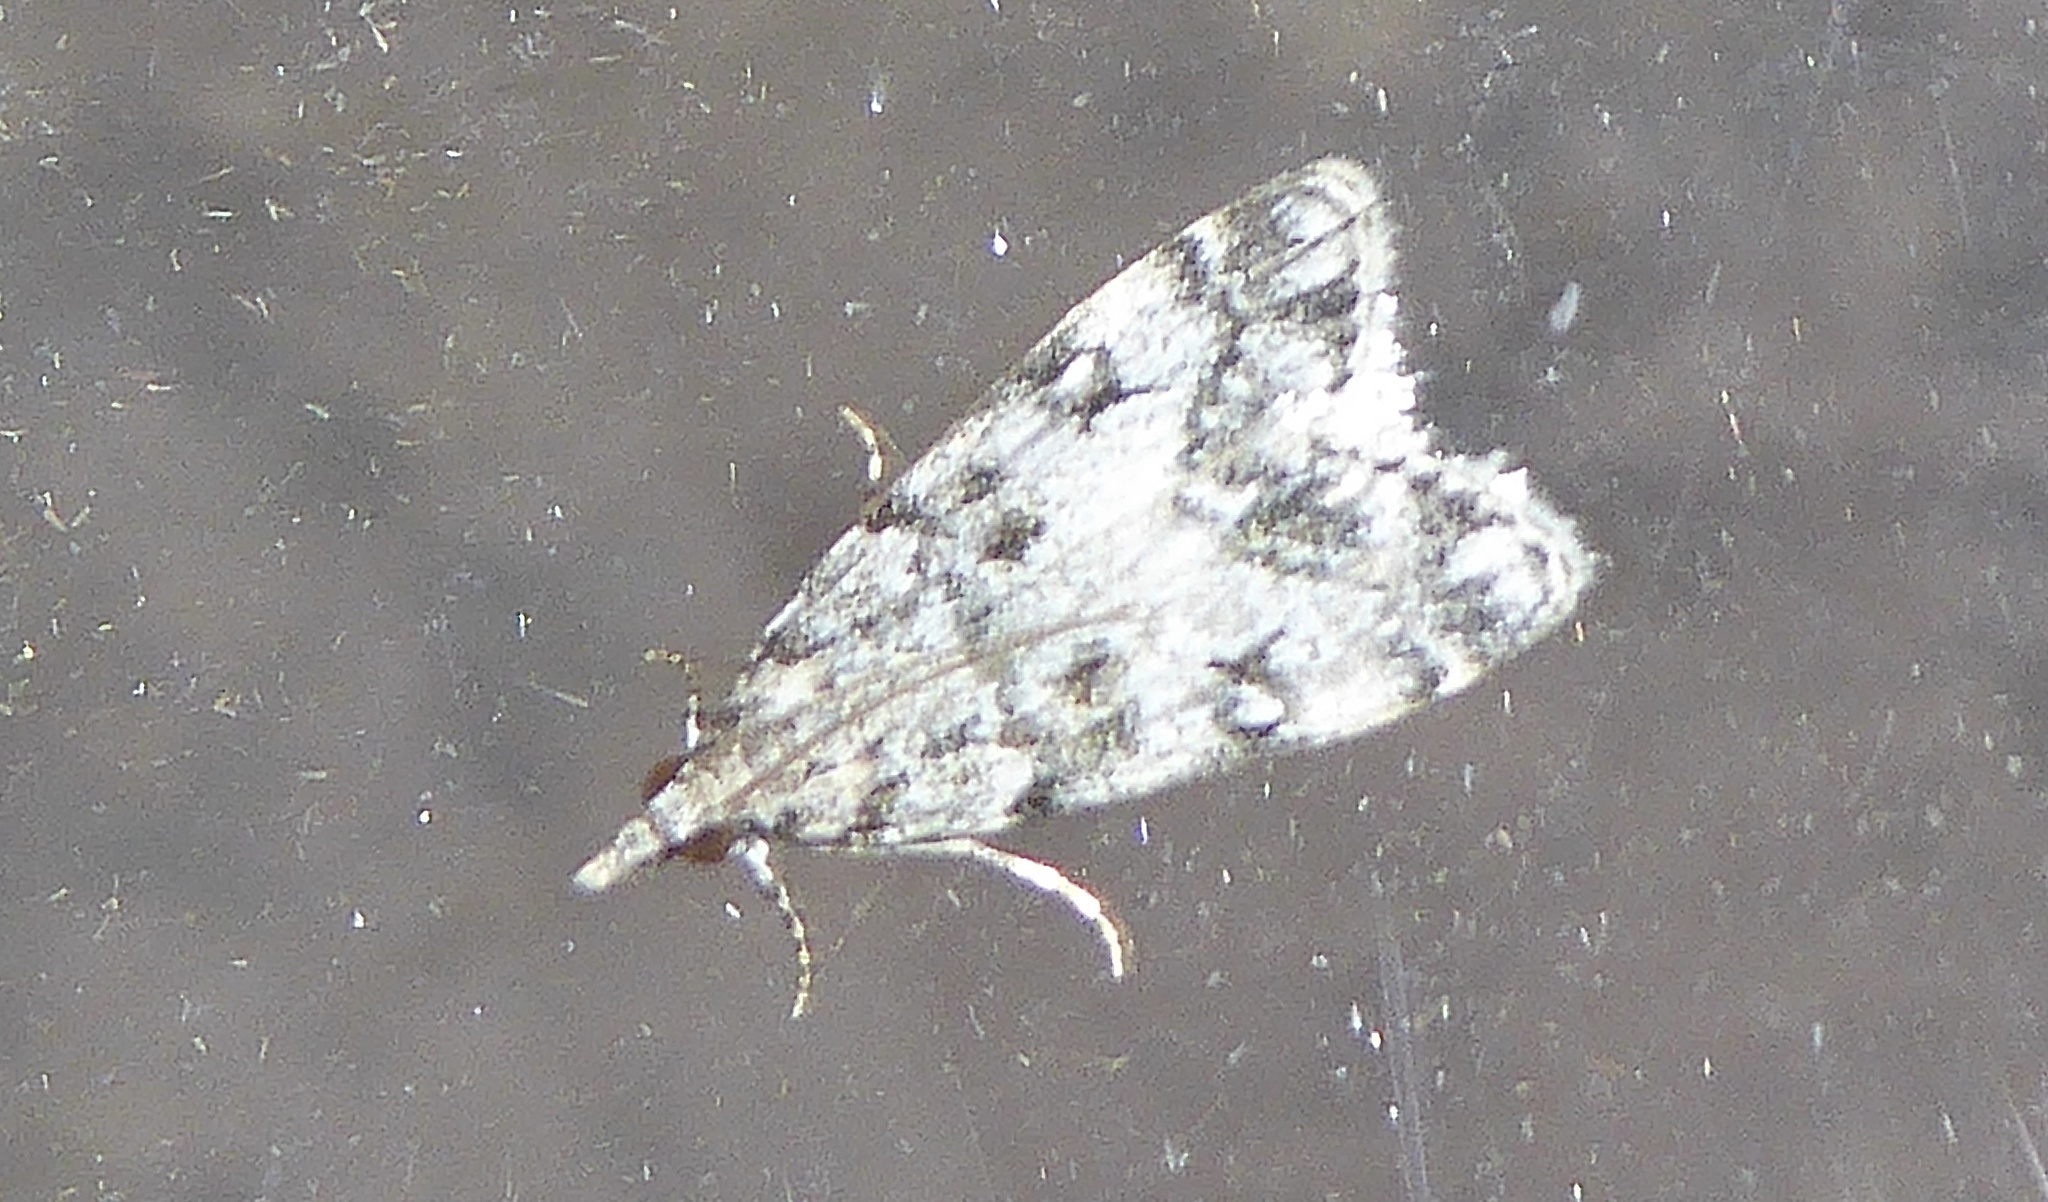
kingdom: Animalia
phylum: Arthropoda
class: Insecta
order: Lepidoptera
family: Crambidae
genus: Eudonia
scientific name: Eudonia lacustrata
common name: Little grey
